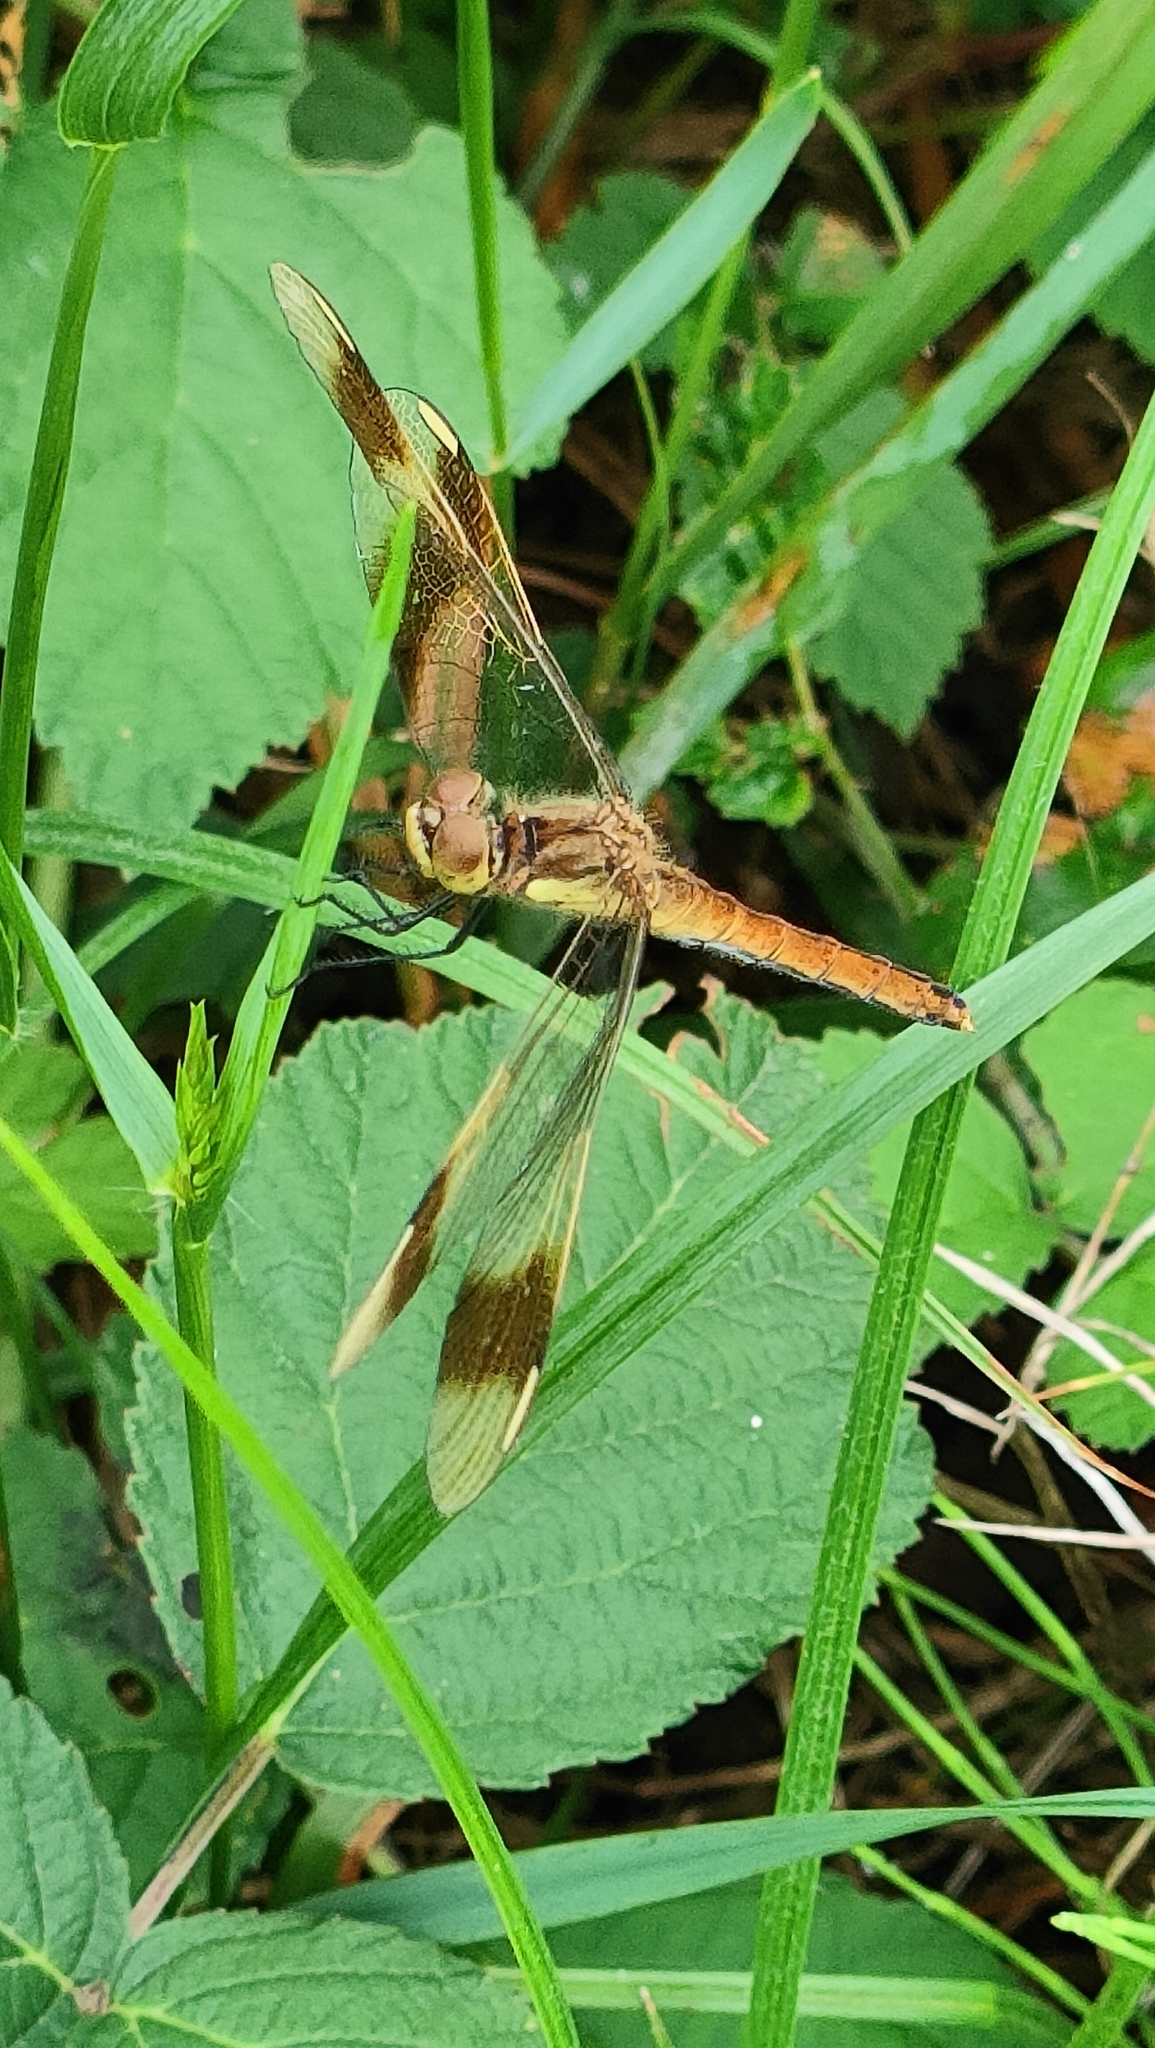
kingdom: Animalia
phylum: Arthropoda
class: Insecta
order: Odonata
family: Libellulidae
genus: Sympetrum
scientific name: Sympetrum pedemontanum
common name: Banded darter
